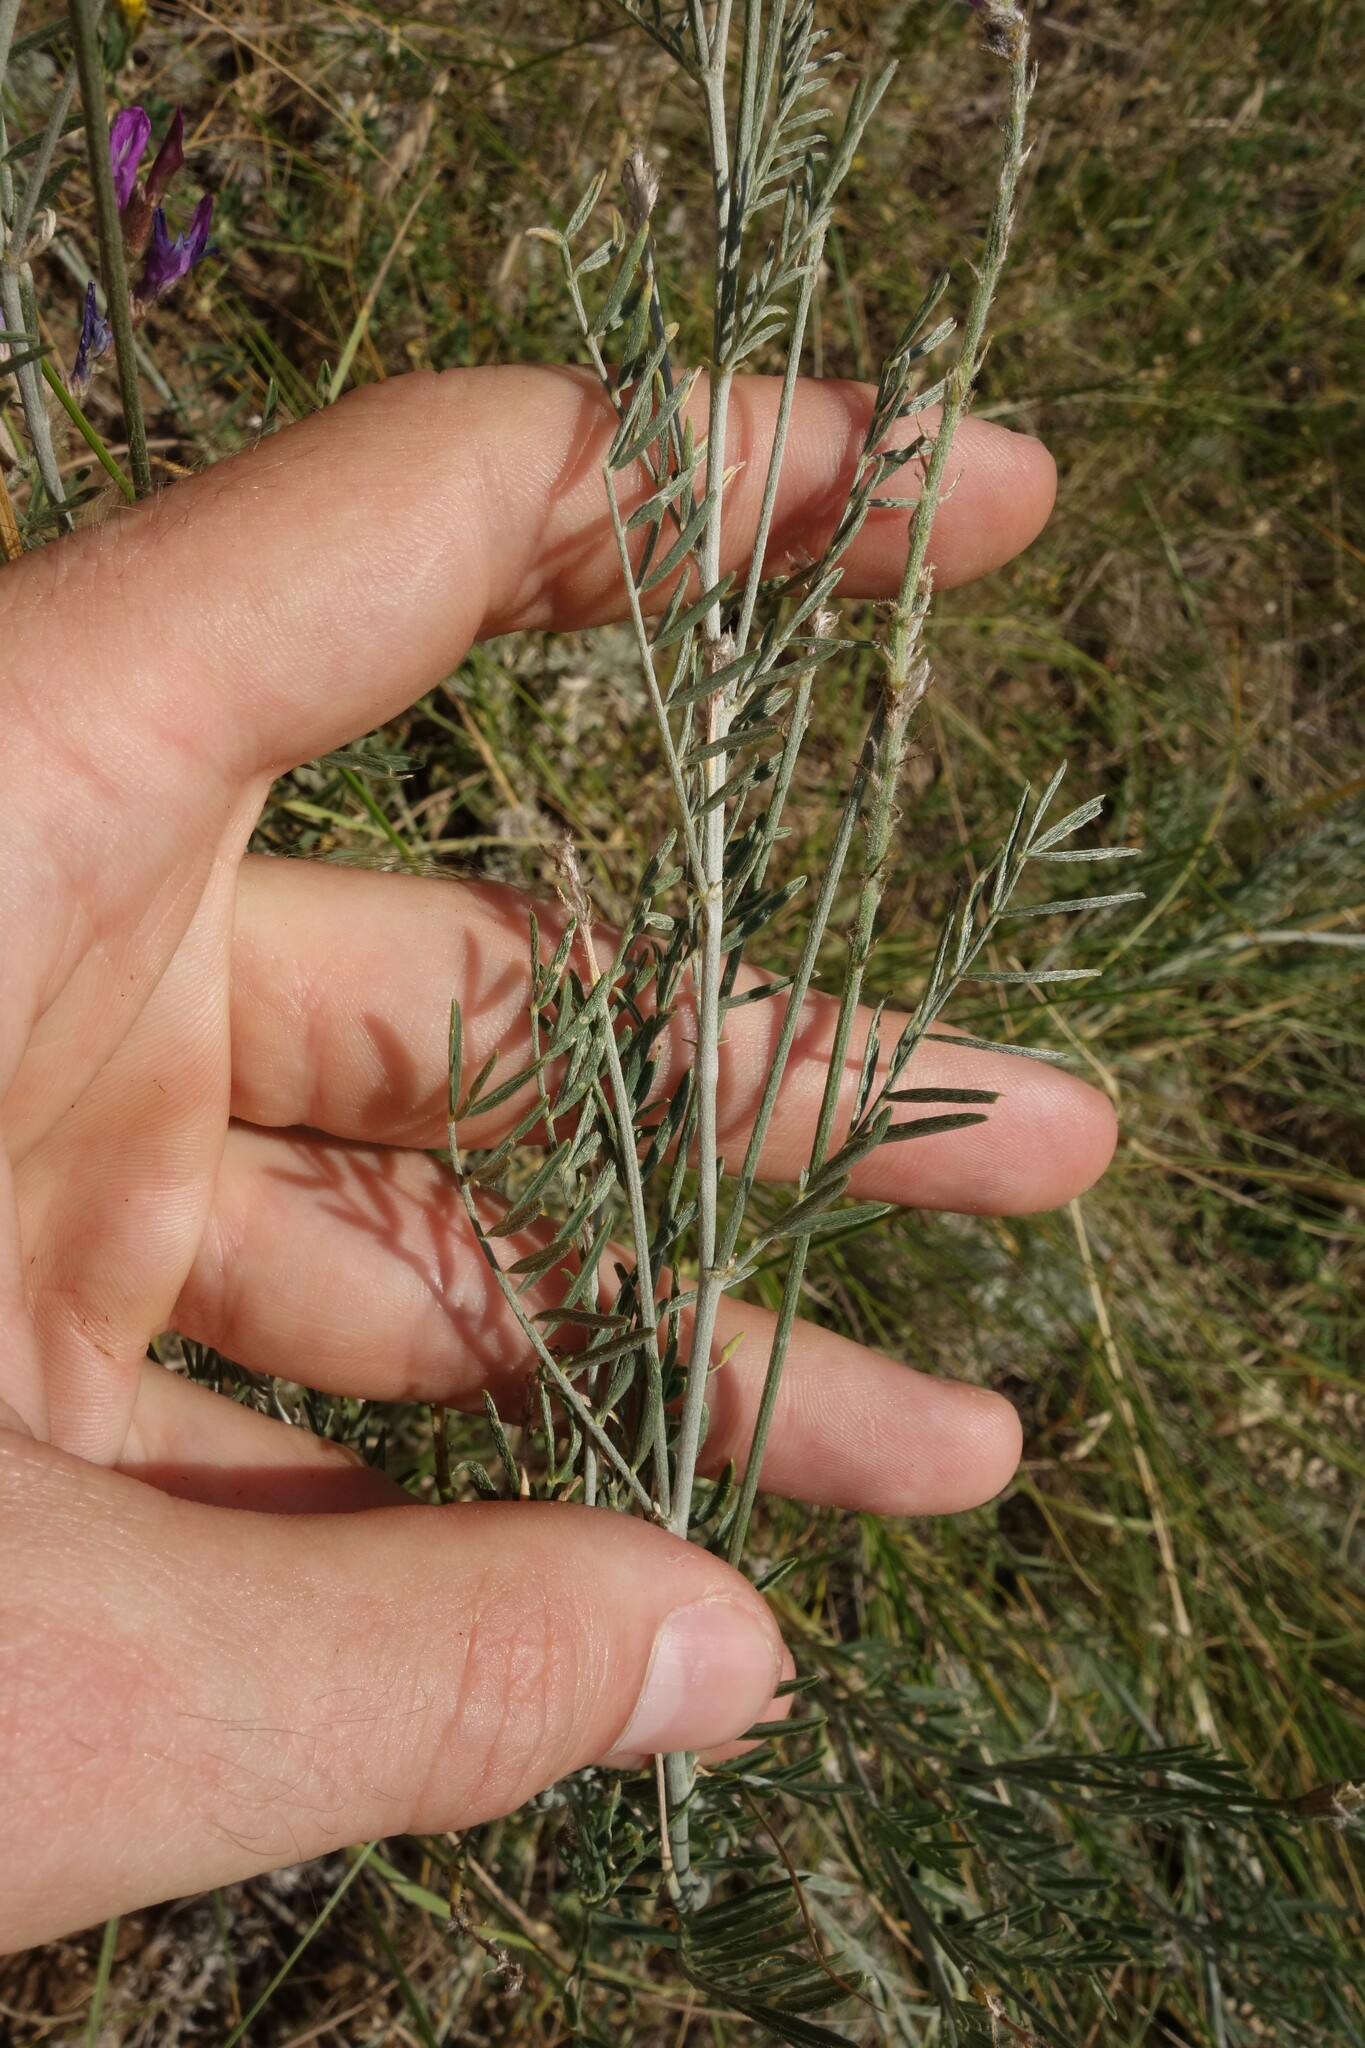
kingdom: Plantae
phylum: Tracheophyta
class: Magnoliopsida
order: Fabales
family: Fabaceae
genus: Astragalus
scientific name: Astragalus varius
